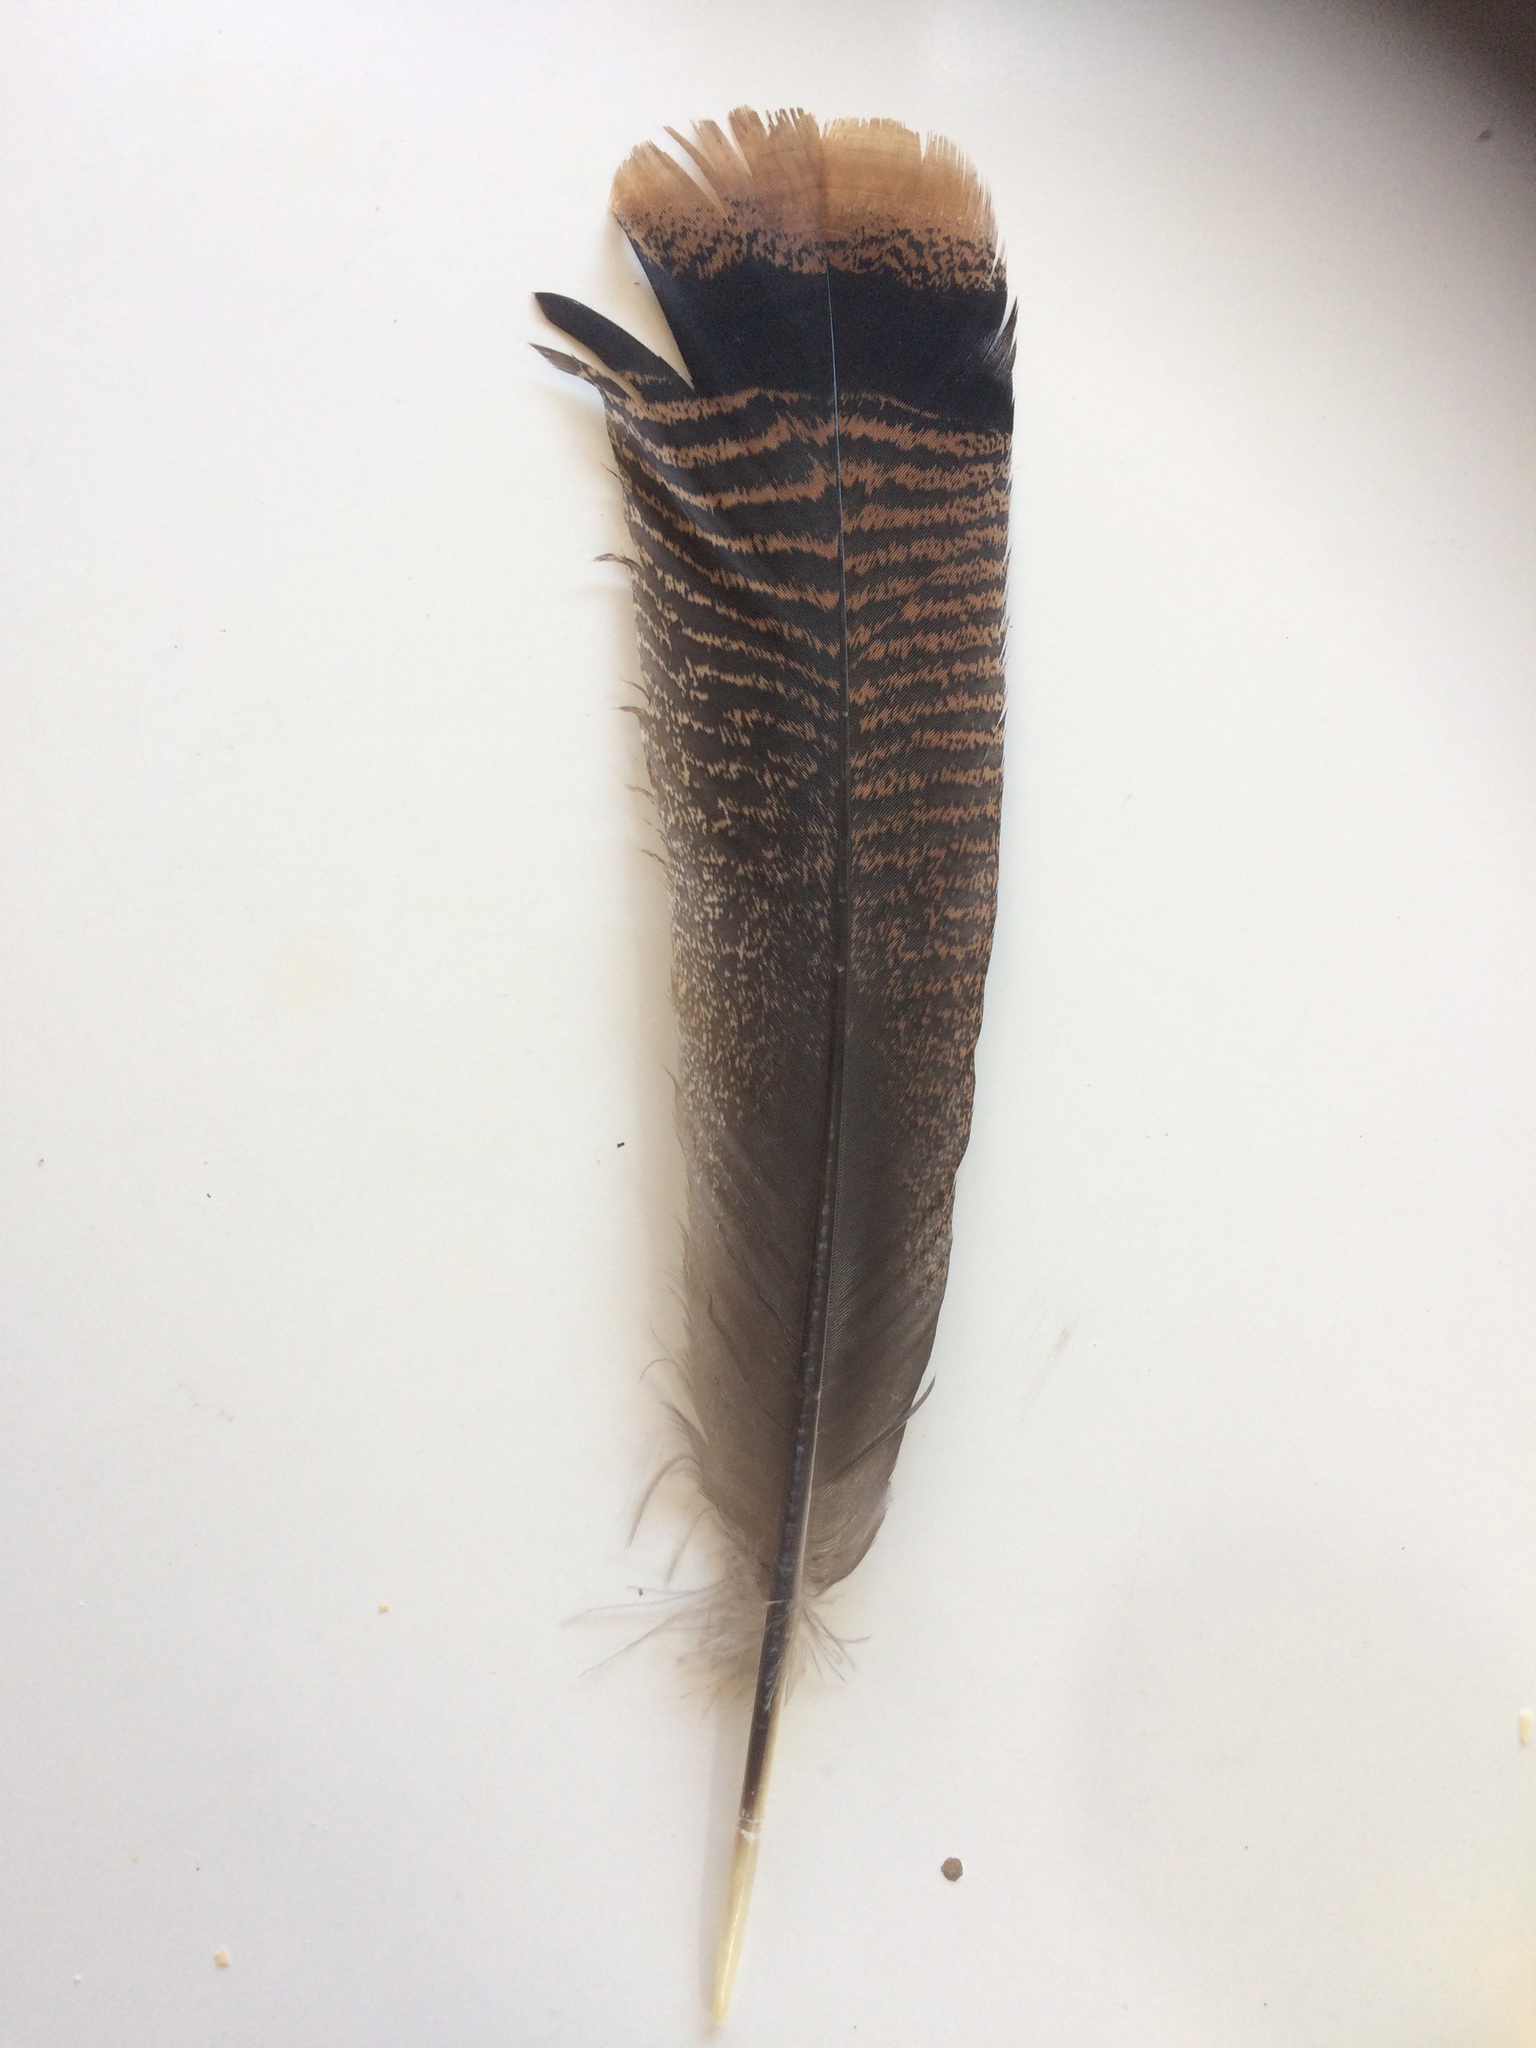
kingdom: Animalia
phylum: Chordata
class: Aves
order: Galliformes
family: Phasianidae
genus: Meleagris
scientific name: Meleagris gallopavo
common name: Wild turkey
